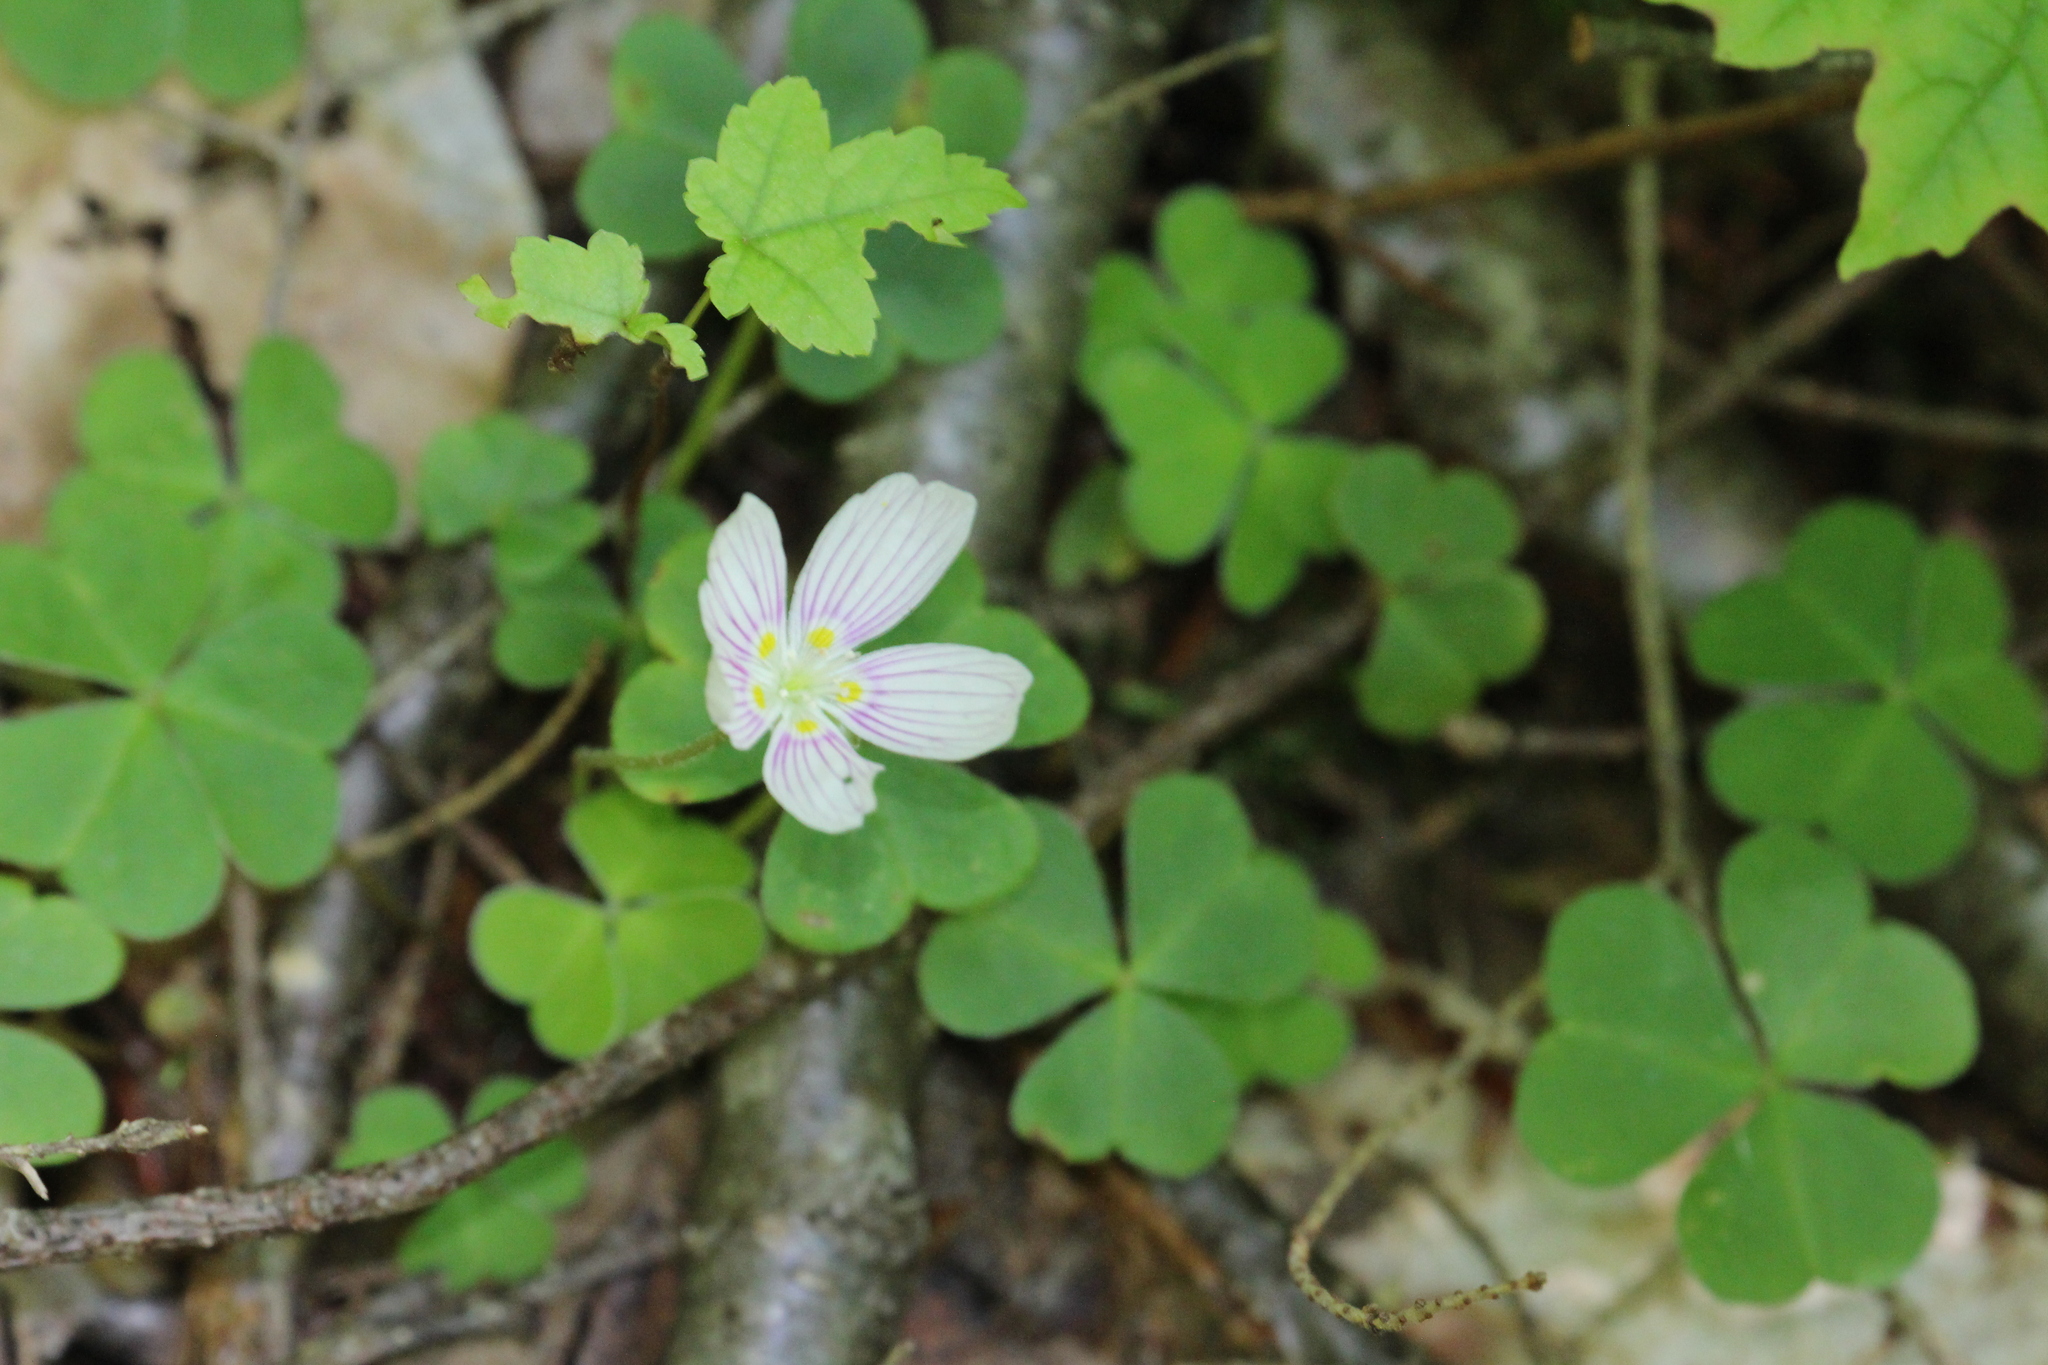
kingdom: Plantae
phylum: Tracheophyta
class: Magnoliopsida
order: Oxalidales
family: Oxalidaceae
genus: Oxalis
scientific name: Oxalis montana
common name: American wood-sorrel
